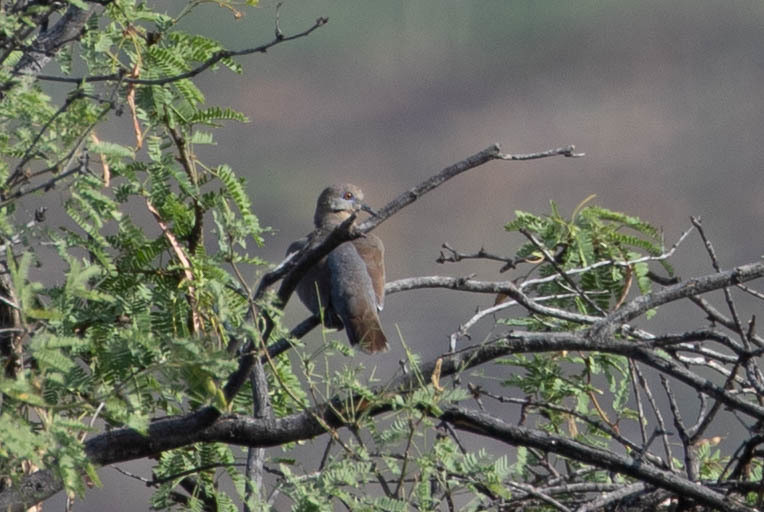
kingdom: Animalia
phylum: Chordata
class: Aves
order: Columbiformes
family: Columbidae
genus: Zenaida
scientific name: Zenaida asiatica
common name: White-winged dove
